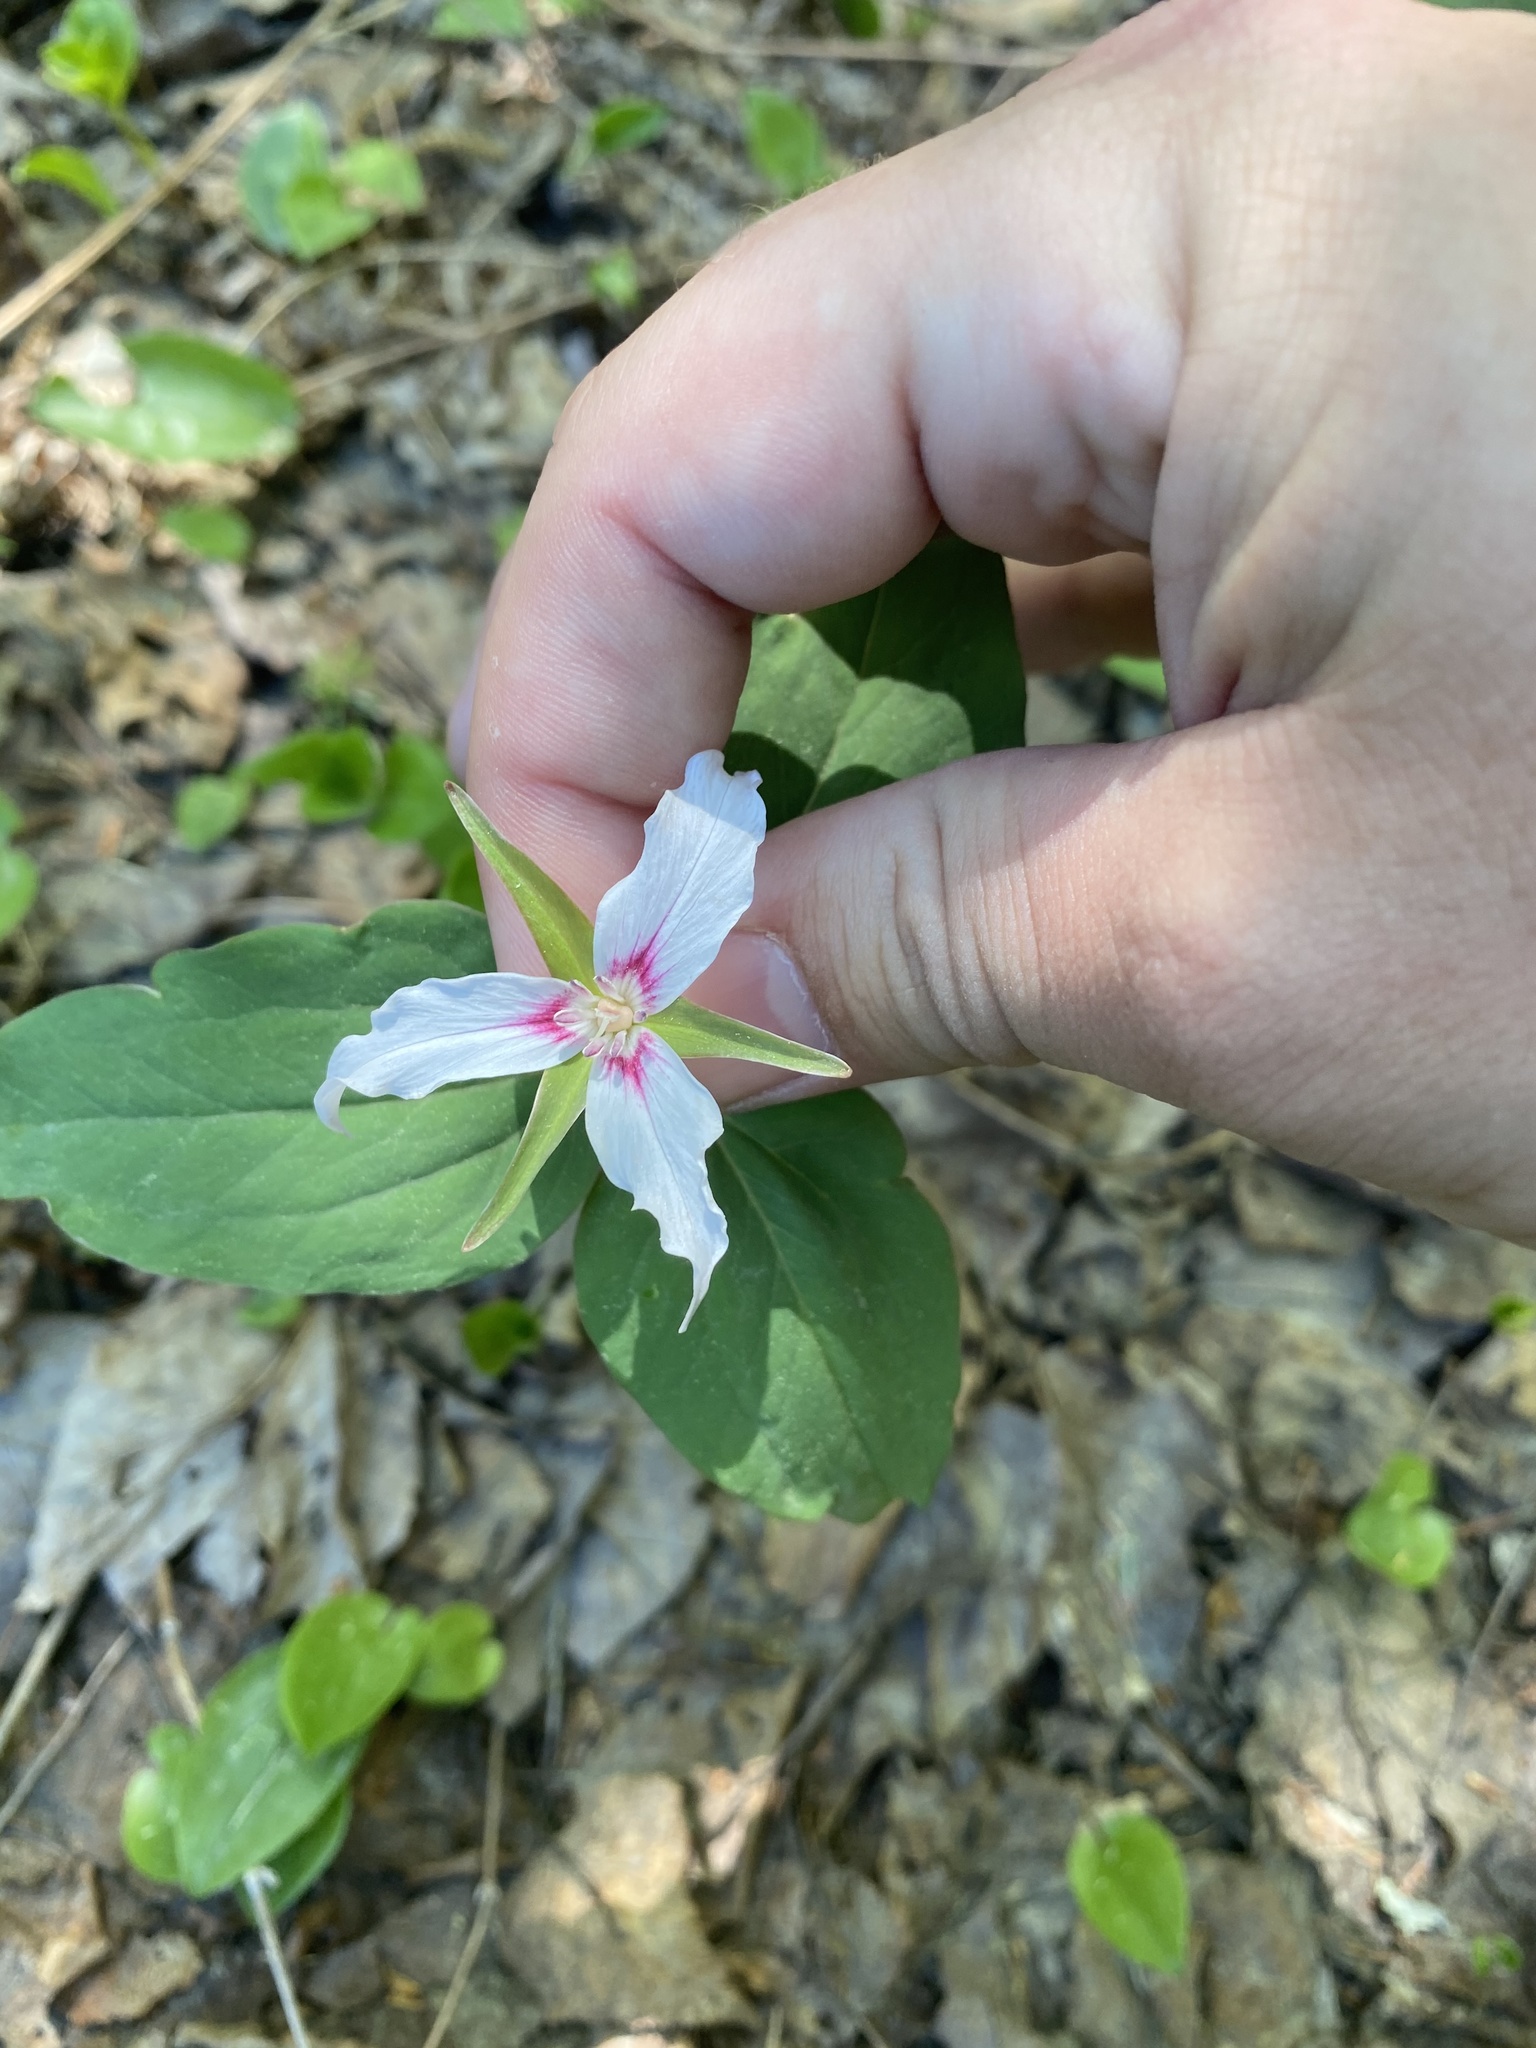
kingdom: Plantae
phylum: Tracheophyta
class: Liliopsida
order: Liliales
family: Melanthiaceae
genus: Trillium
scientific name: Trillium undulatum
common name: Paint trillium
